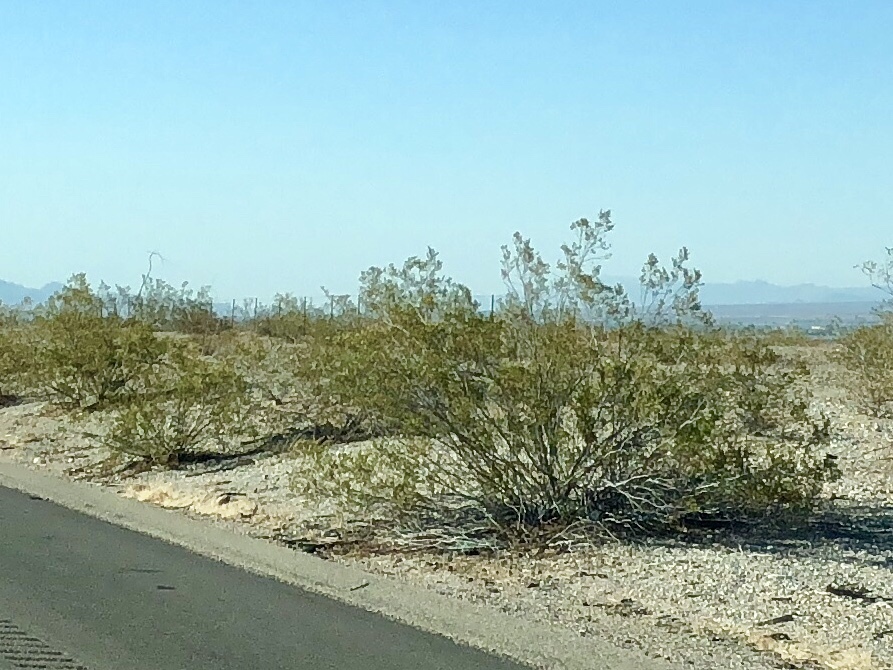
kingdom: Plantae
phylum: Tracheophyta
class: Magnoliopsida
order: Zygophyllales
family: Zygophyllaceae
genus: Larrea
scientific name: Larrea tridentata
